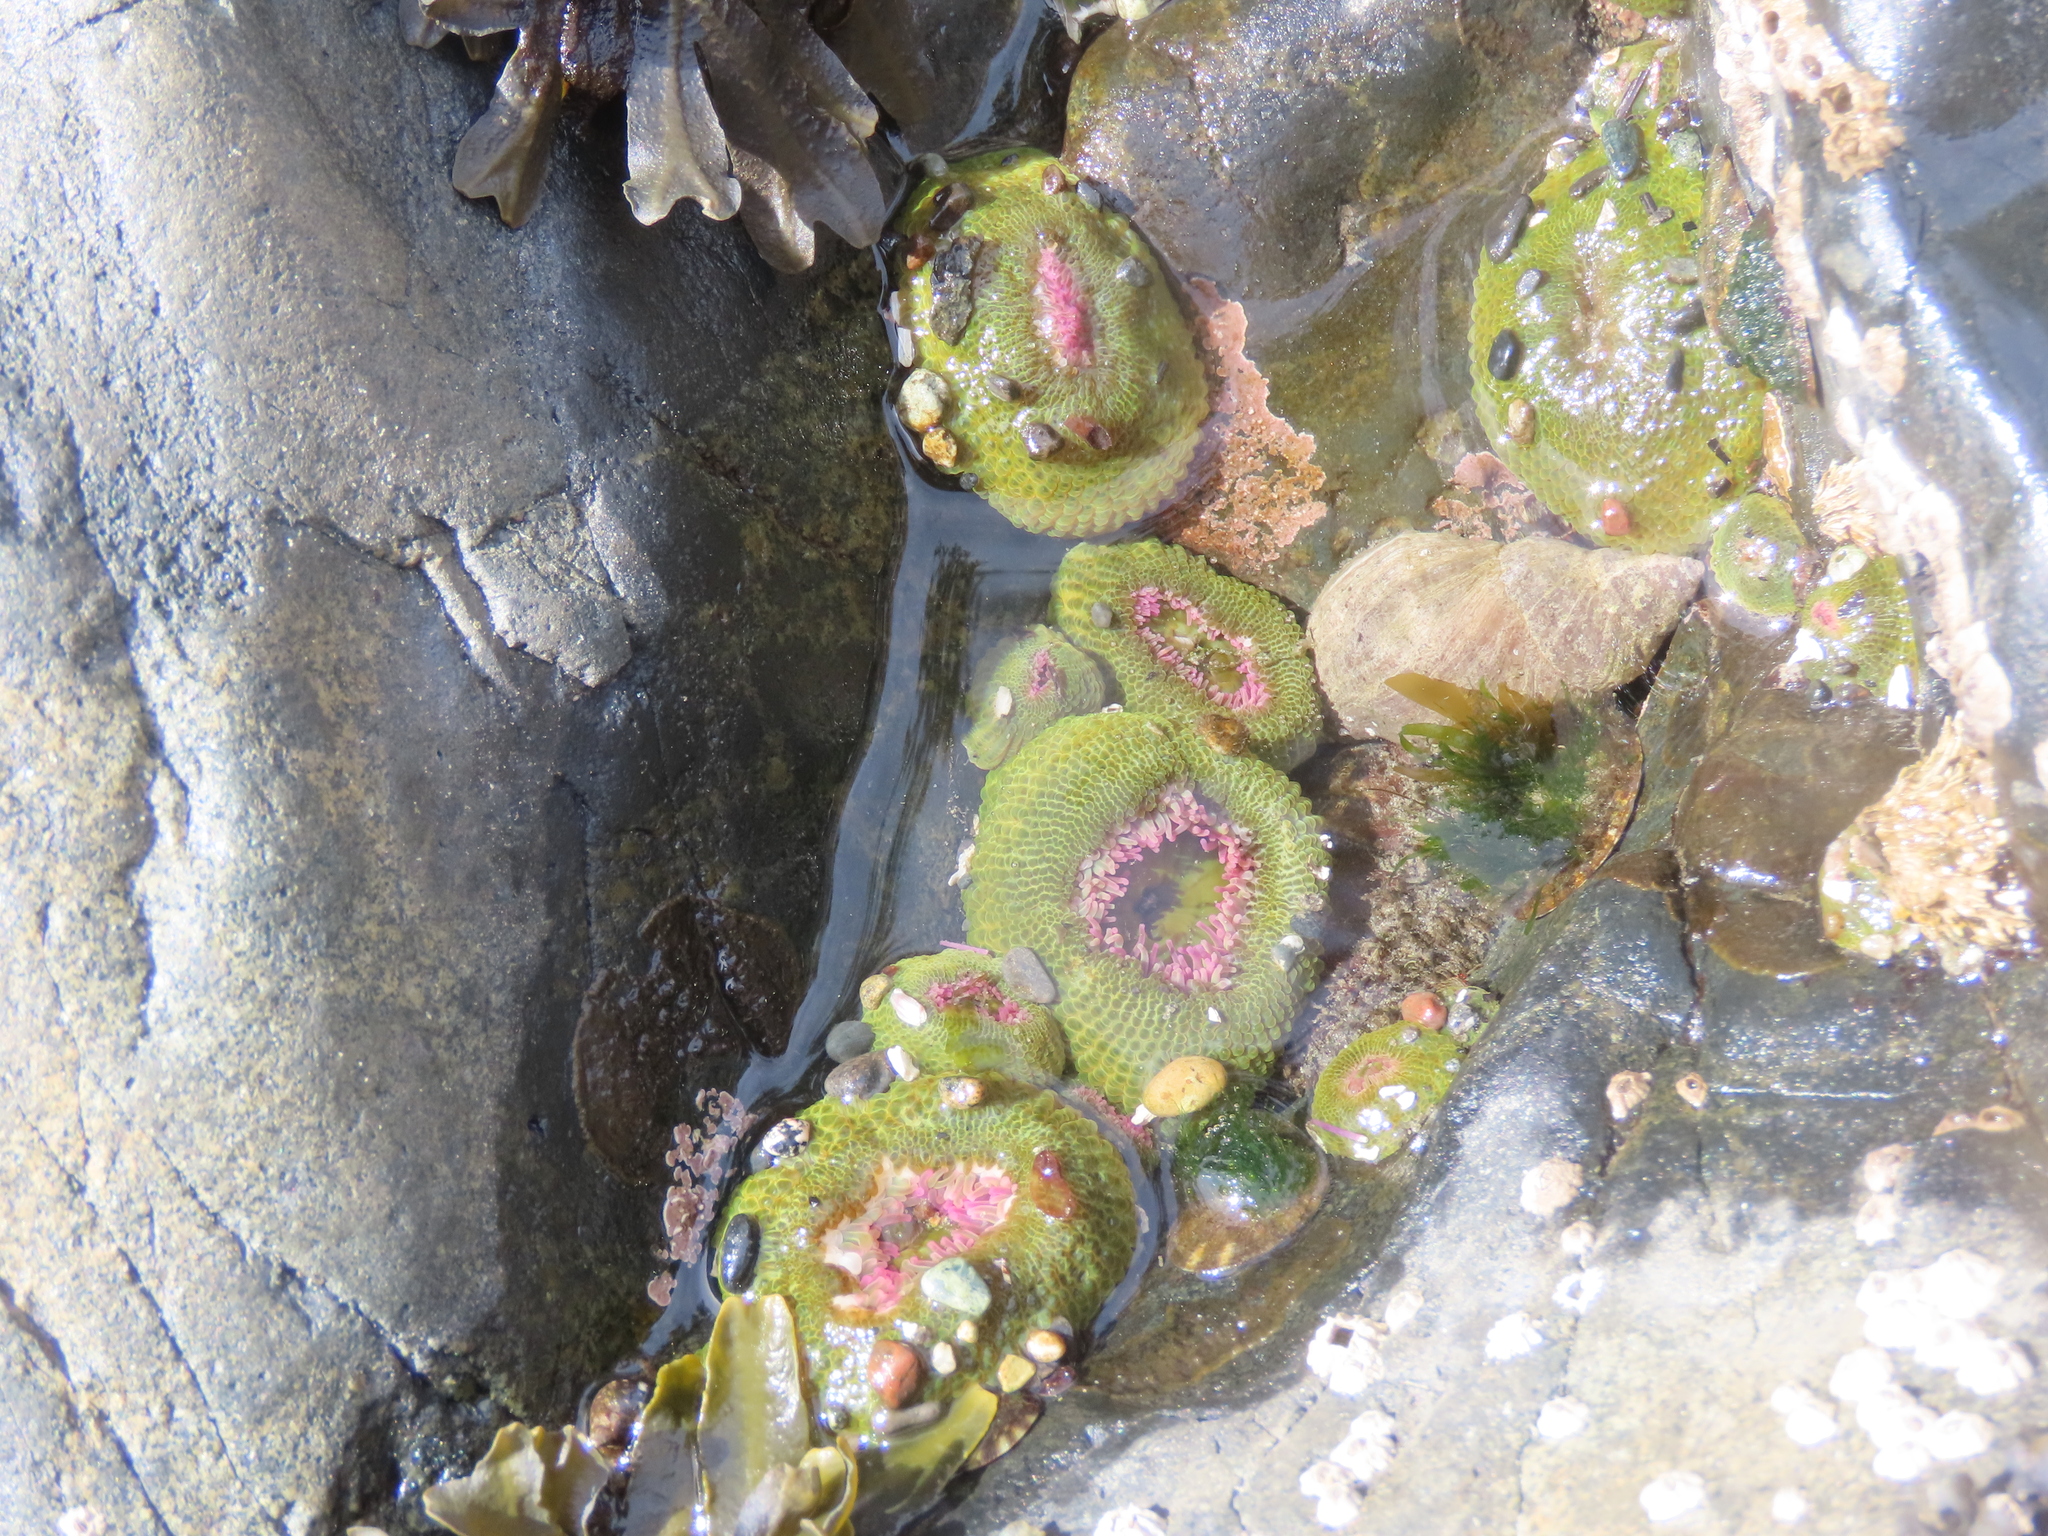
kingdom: Animalia
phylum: Cnidaria
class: Anthozoa
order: Actiniaria
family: Actiniidae
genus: Anthopleura
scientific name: Anthopleura elegantissima
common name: Clonal anemone
